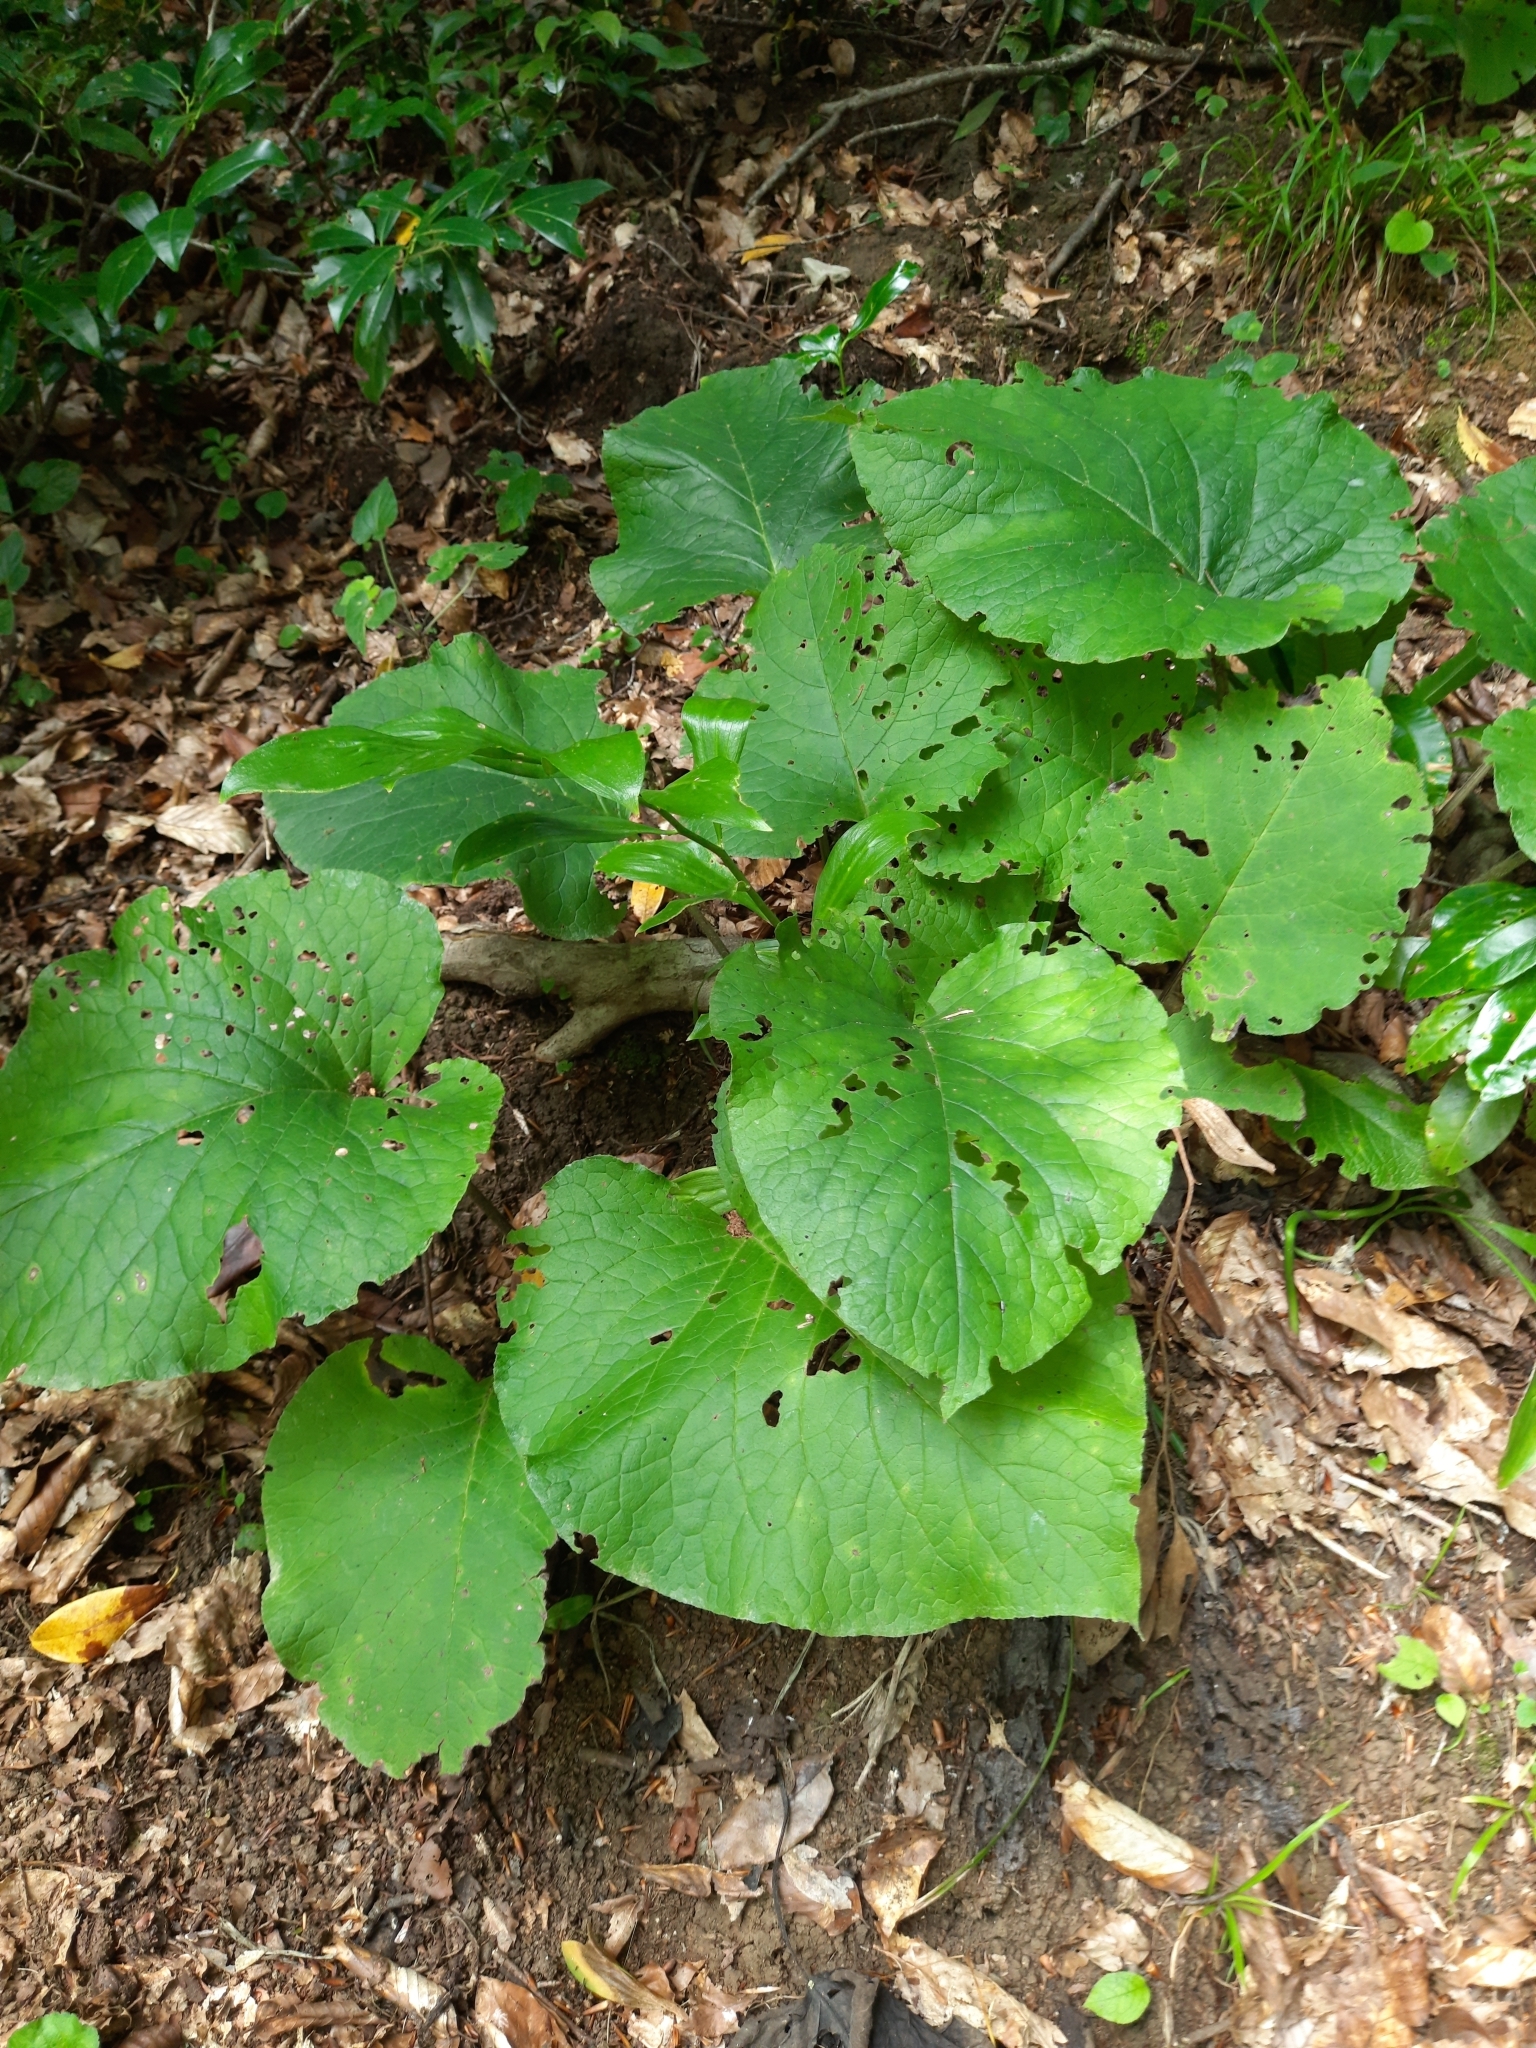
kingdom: Plantae
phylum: Tracheophyta
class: Magnoliopsida
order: Boraginales
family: Boraginaceae
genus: Trachystemon
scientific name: Trachystemon orientale
